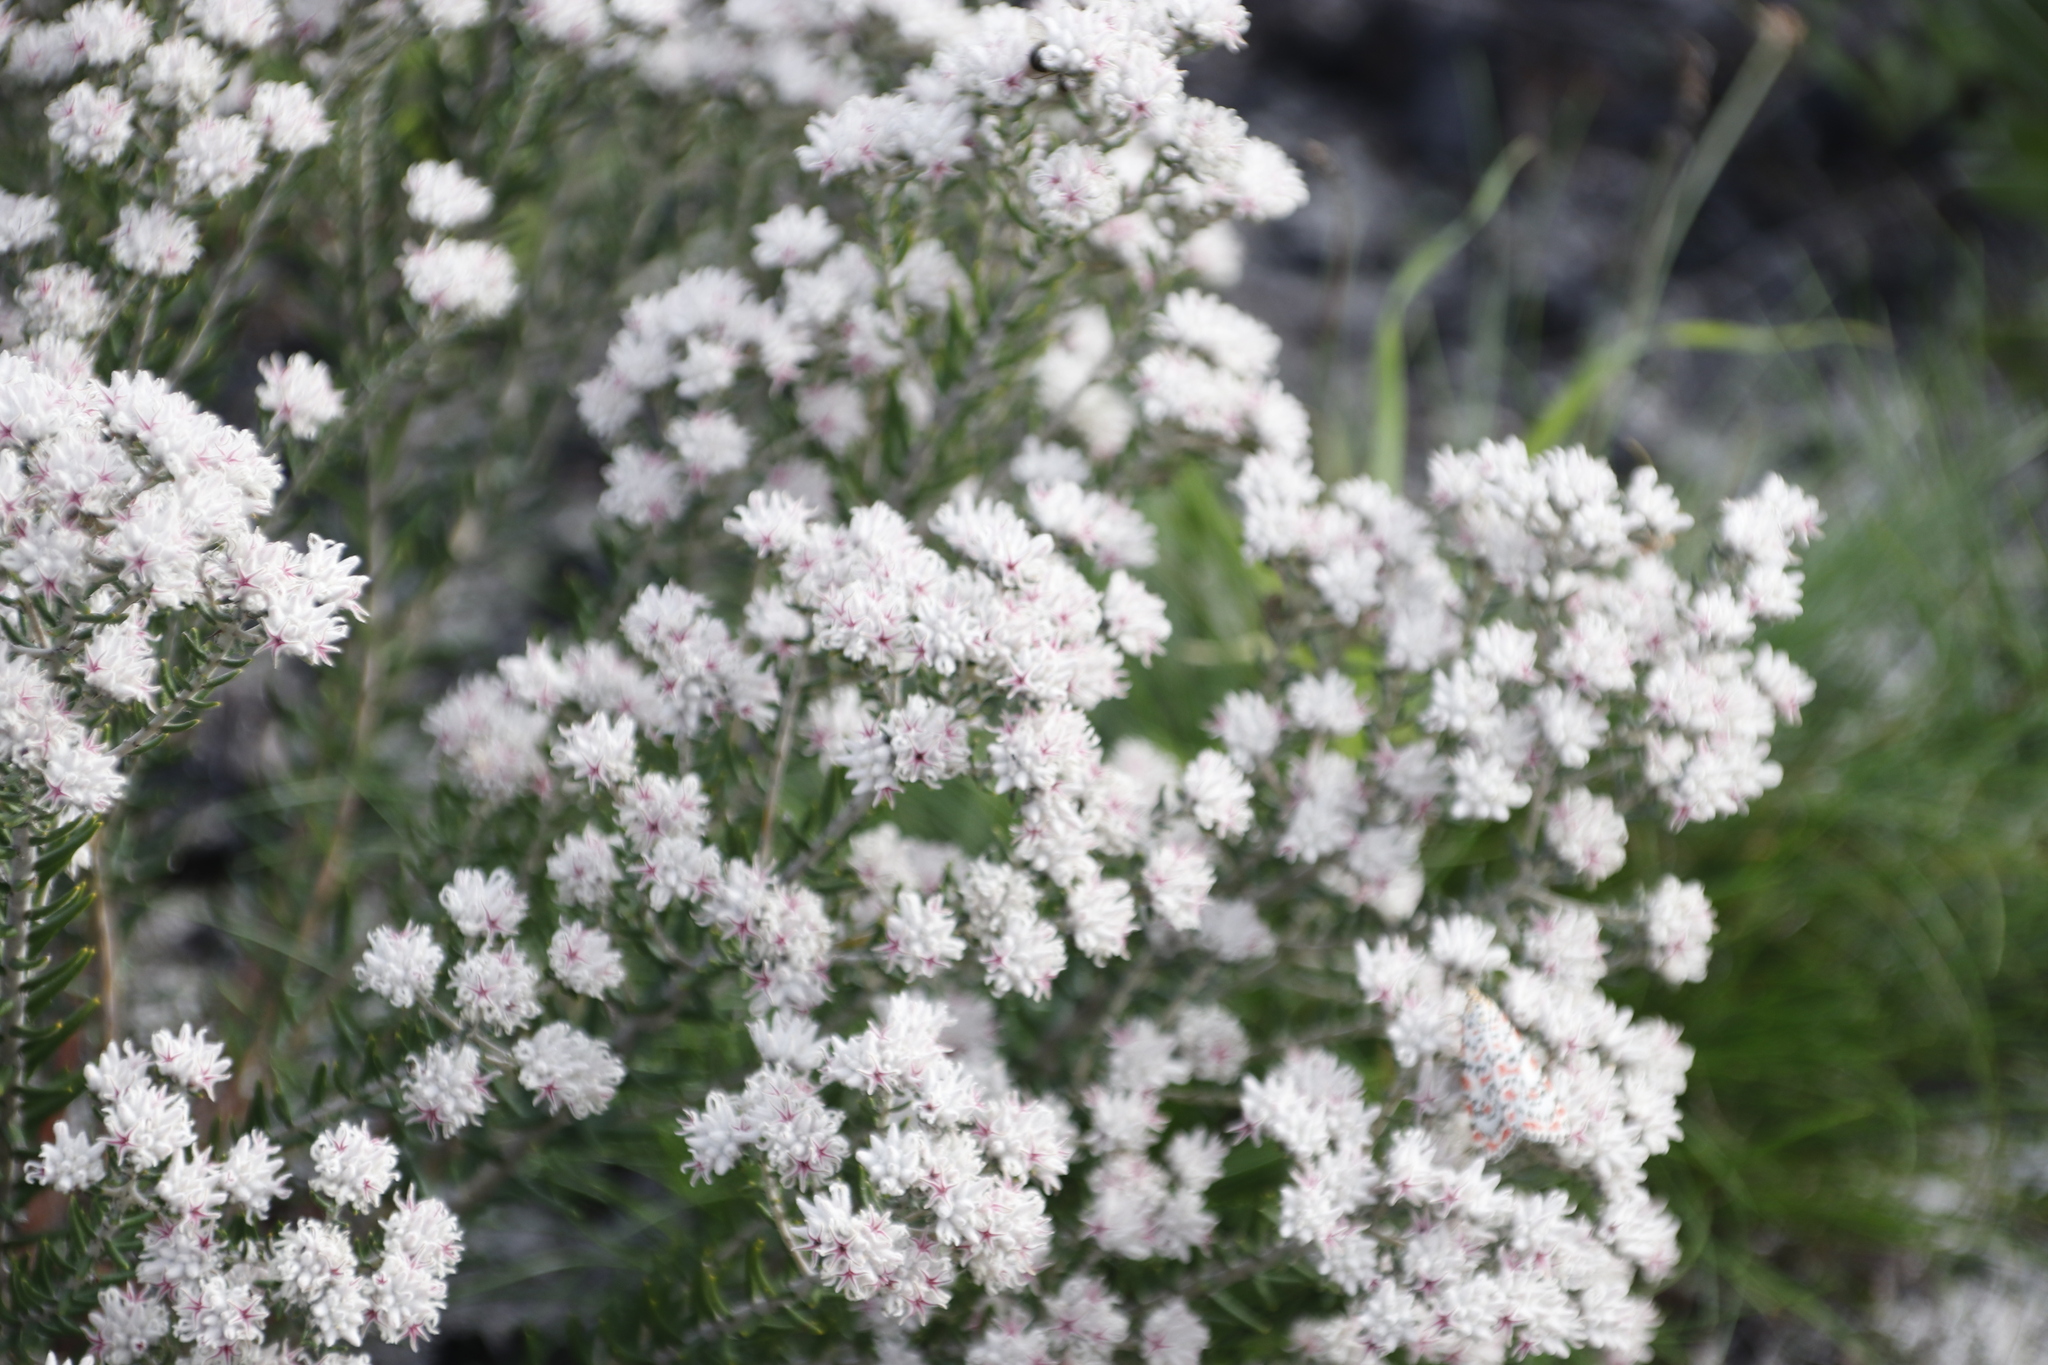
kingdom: Plantae
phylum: Tracheophyta
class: Magnoliopsida
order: Rosales
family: Rhamnaceae
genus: Trichocephalus
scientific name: Trichocephalus stipularis
